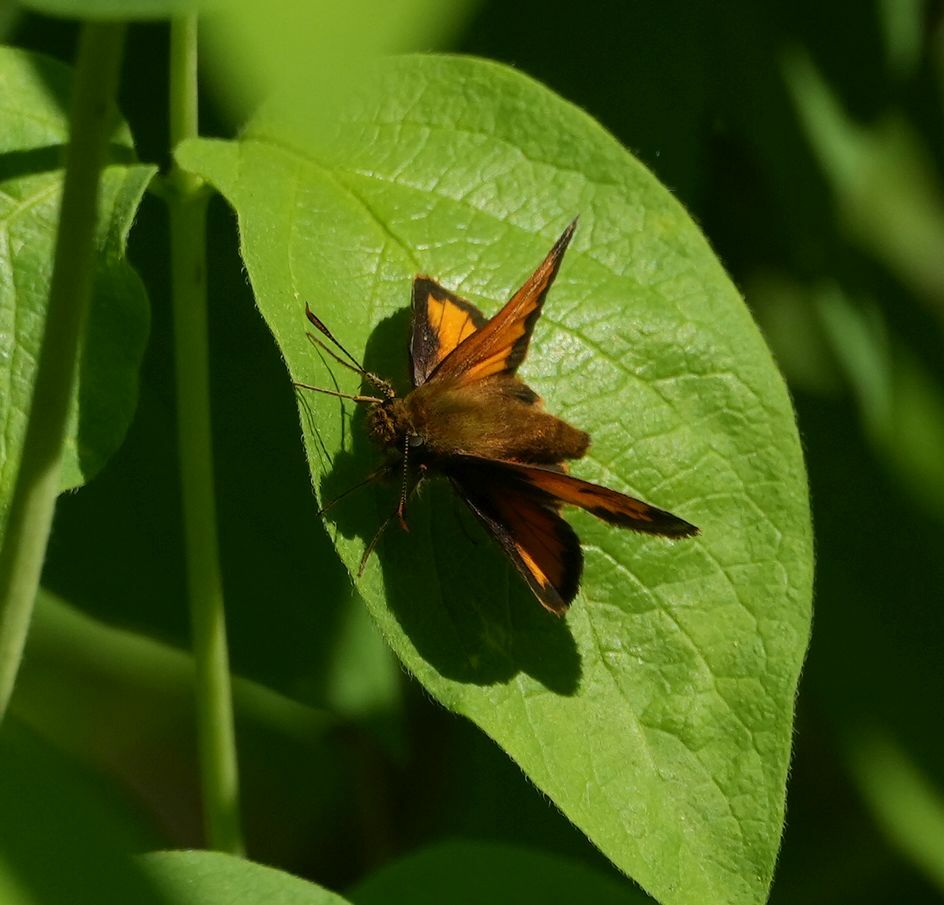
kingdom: Animalia
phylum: Arthropoda
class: Insecta
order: Lepidoptera
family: Hesperiidae
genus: Lon
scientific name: Lon hobomok
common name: Hobomok skipper
